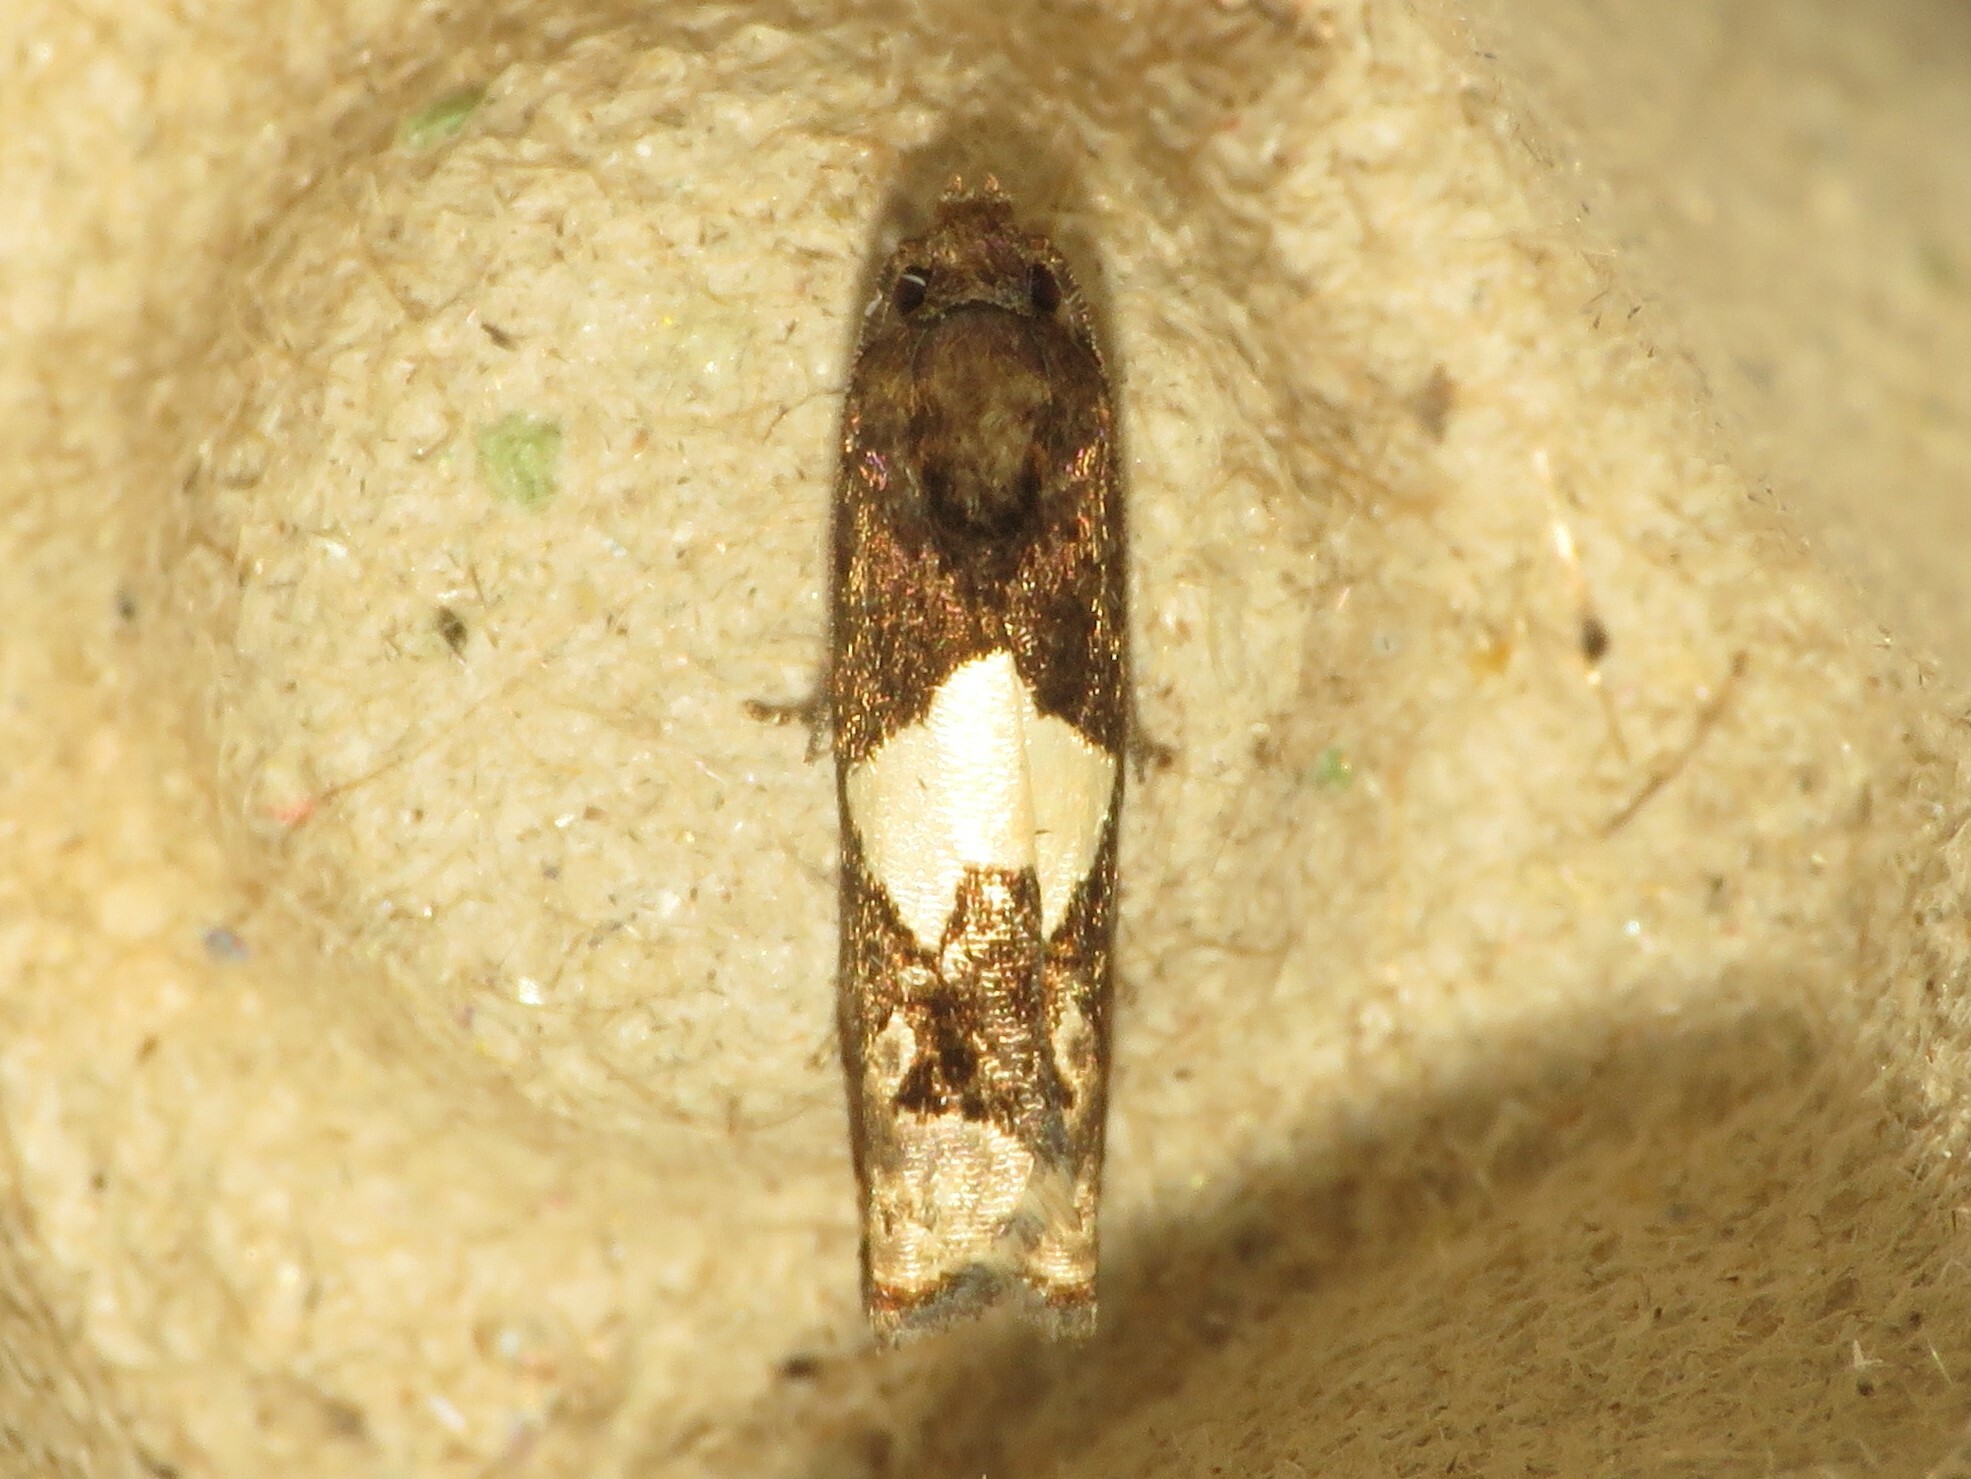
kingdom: Animalia
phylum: Arthropoda
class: Insecta
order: Lepidoptera
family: Tortricidae
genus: Epiblema
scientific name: Epiblema otiosana
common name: Bidens borer moth
